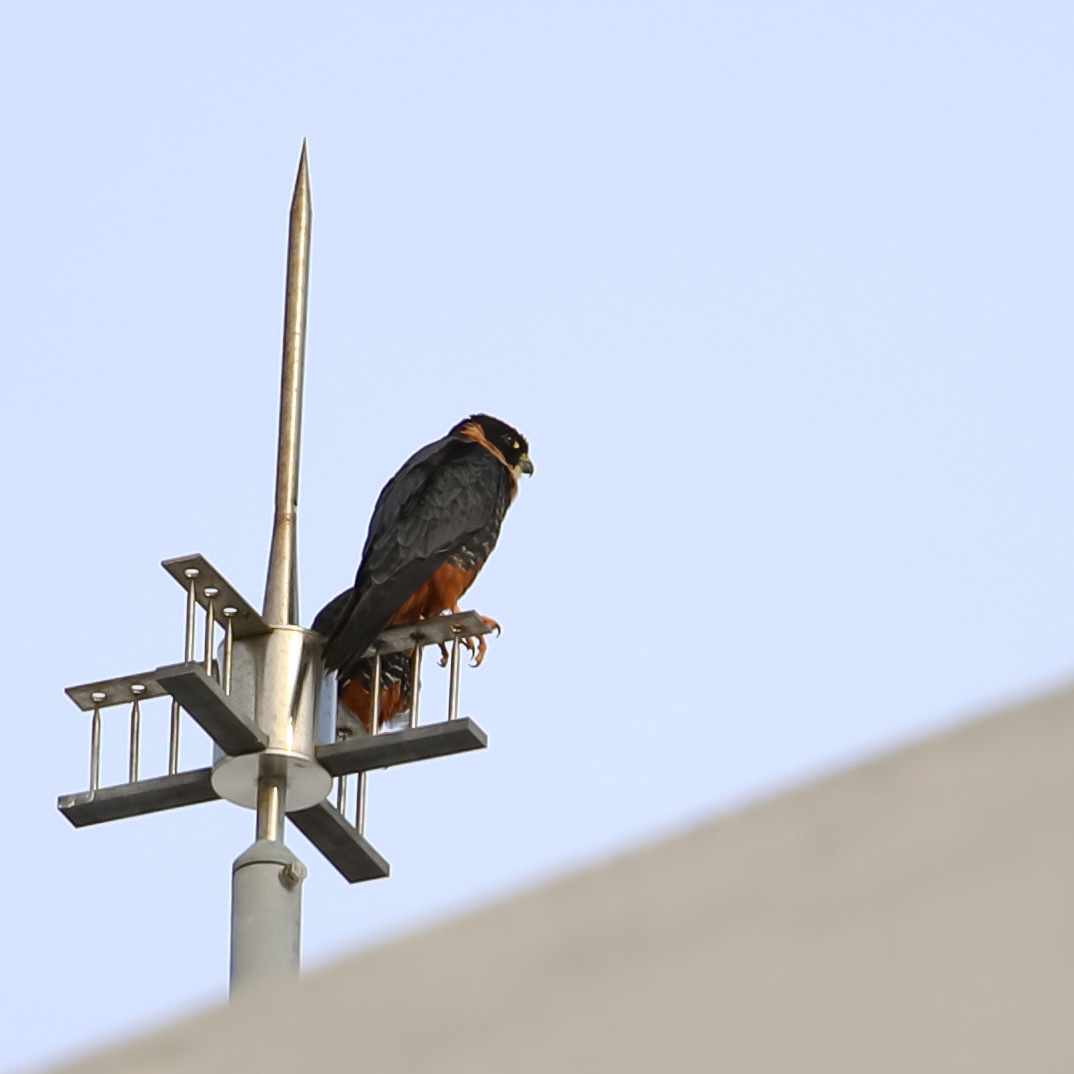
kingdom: Animalia
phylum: Chordata
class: Aves
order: Falconiformes
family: Falconidae
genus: Falco
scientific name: Falco rufigularis
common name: Bat falcon
